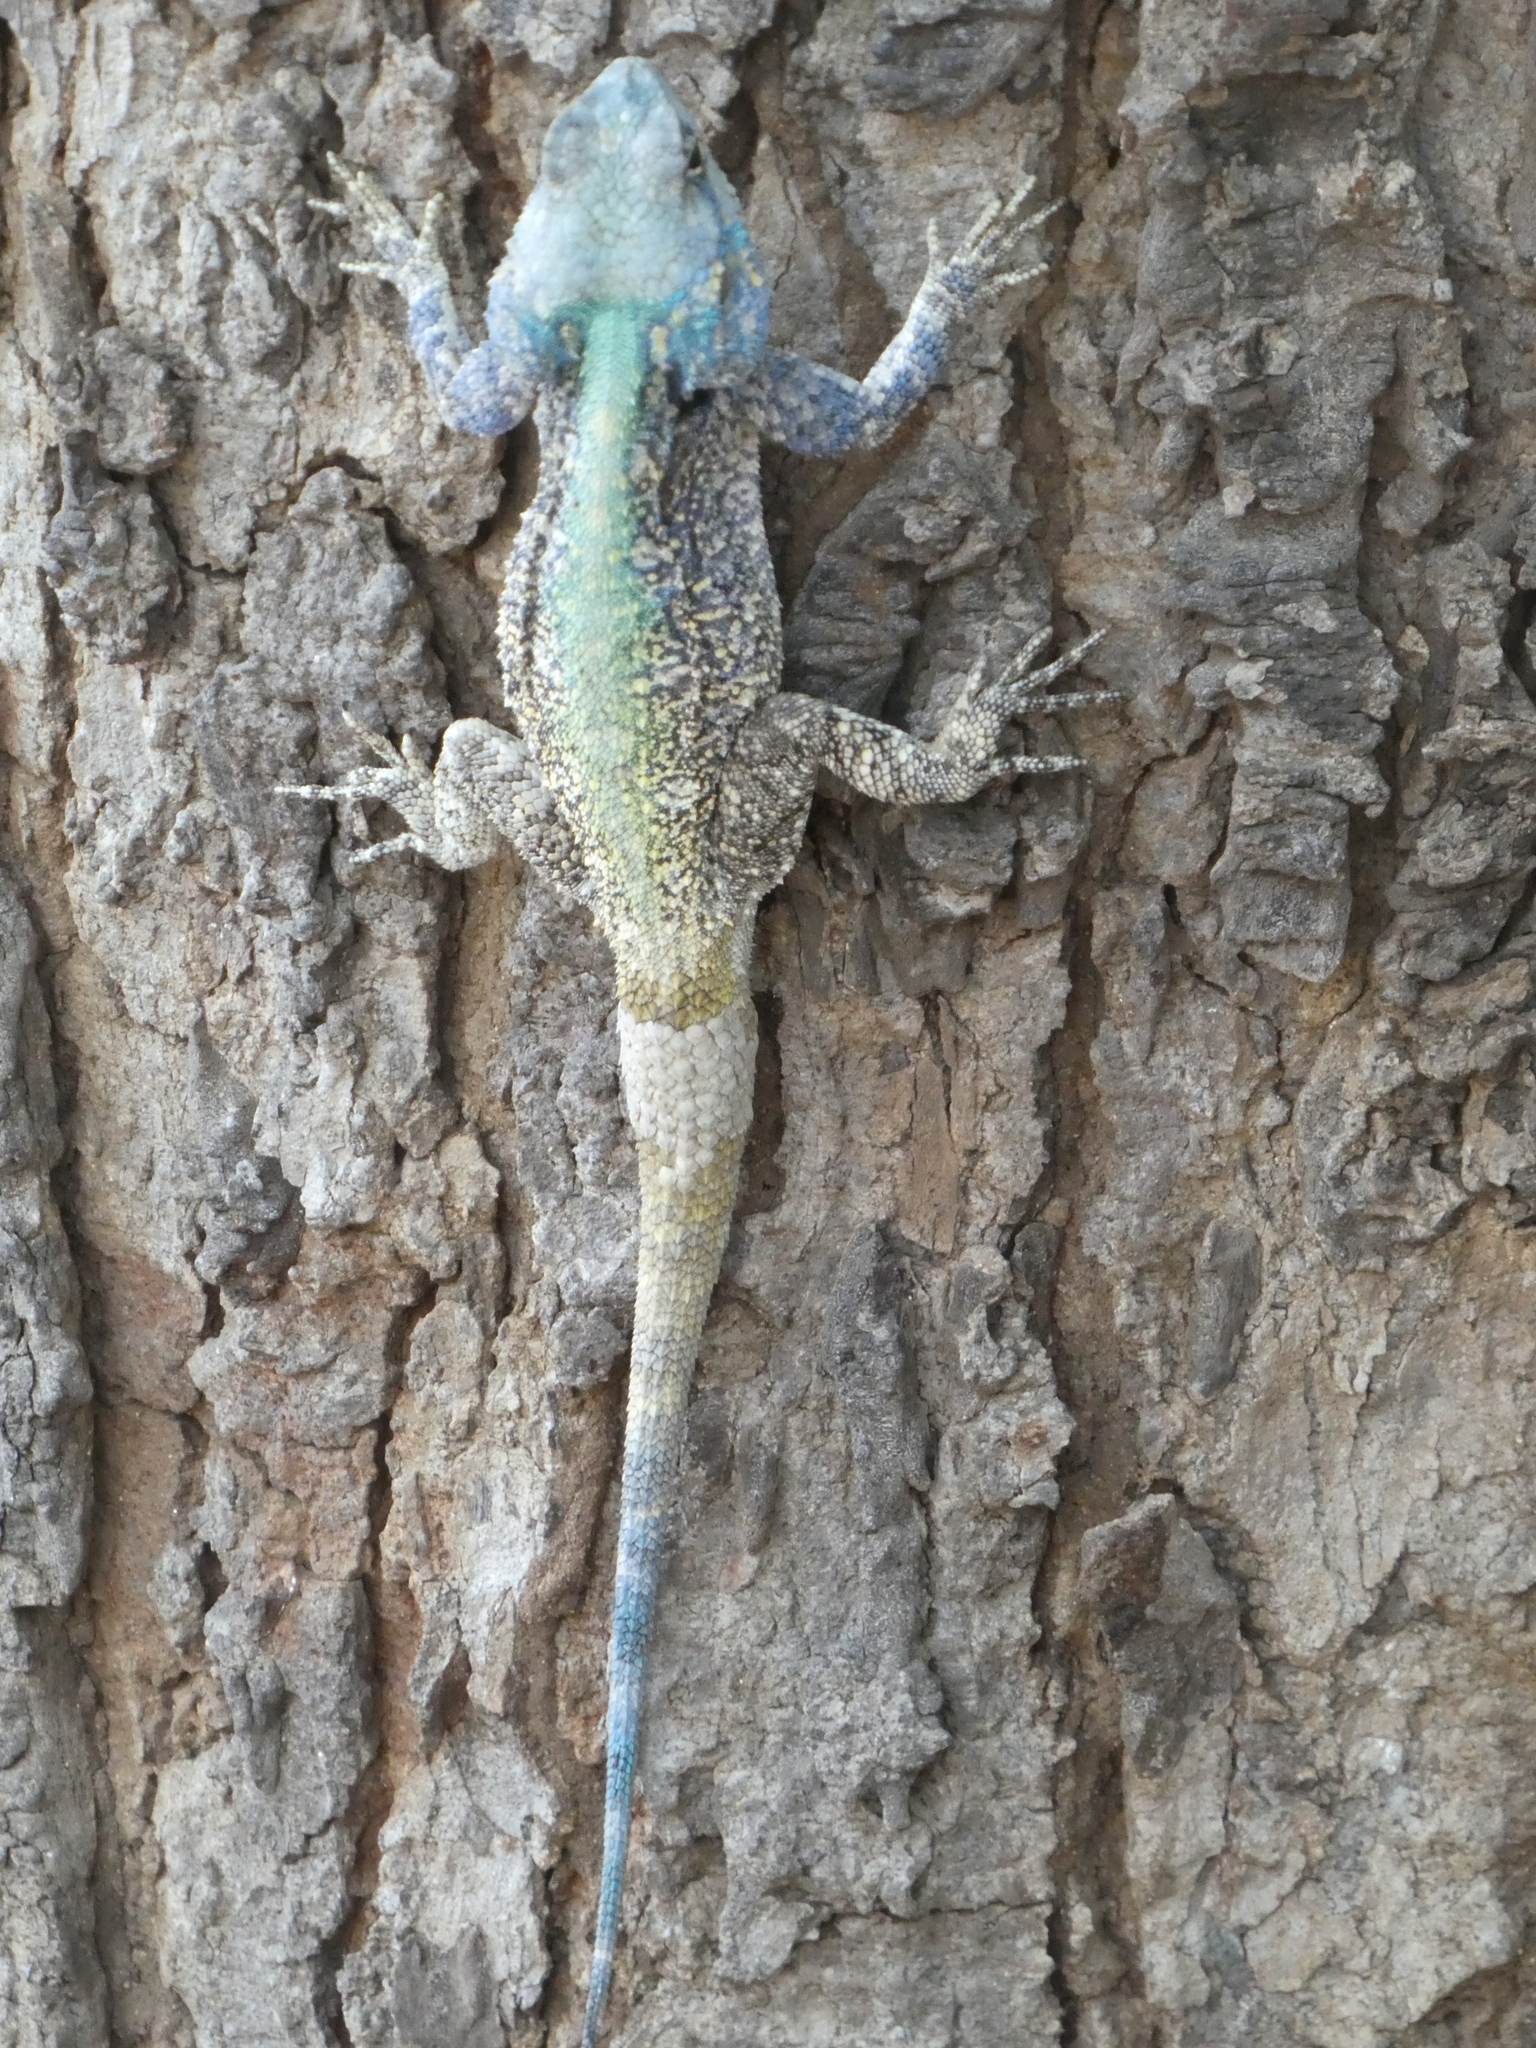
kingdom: Animalia
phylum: Chordata
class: Squamata
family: Agamidae
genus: Acanthocercus
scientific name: Acanthocercus atricollis
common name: Southern tree agama
